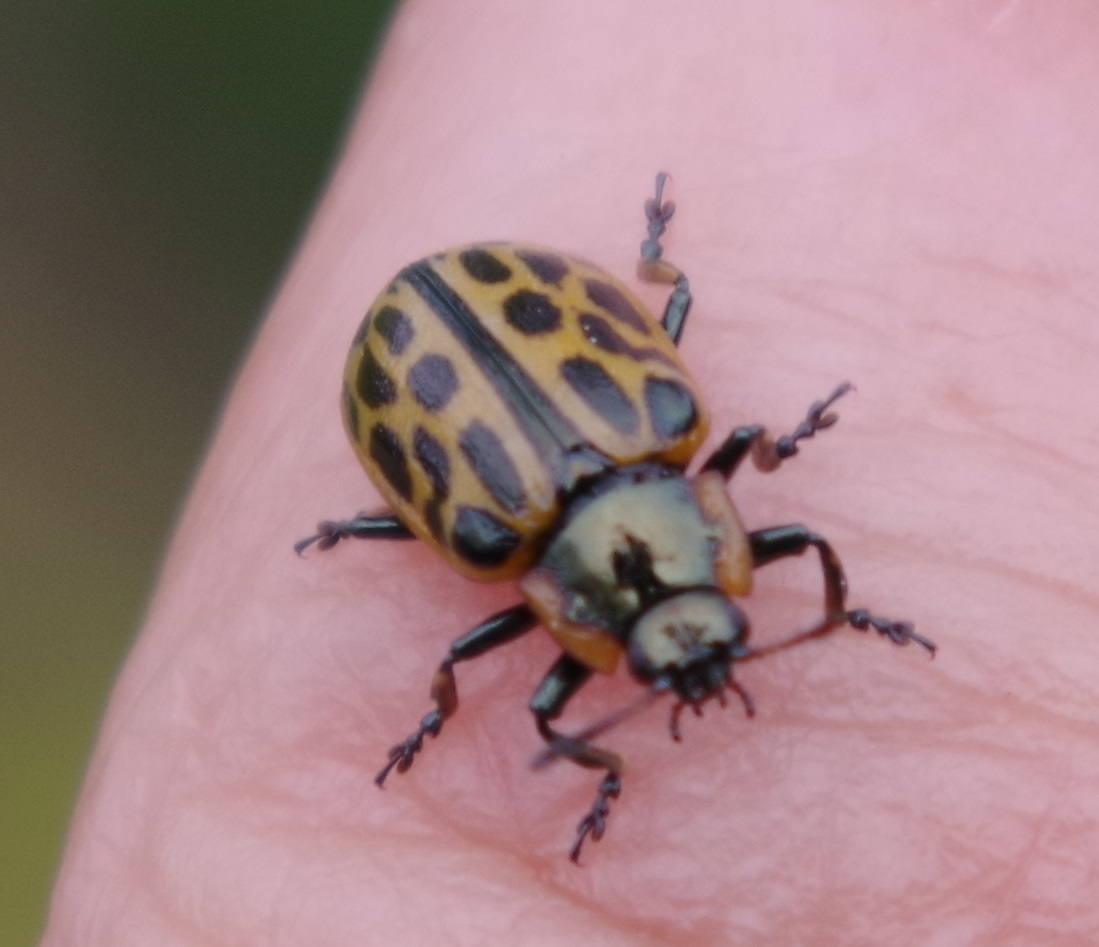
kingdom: Animalia
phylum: Arthropoda
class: Insecta
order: Coleoptera
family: Chrysomelidae
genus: Chrysomela
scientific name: Chrysomela vigintipunctata
